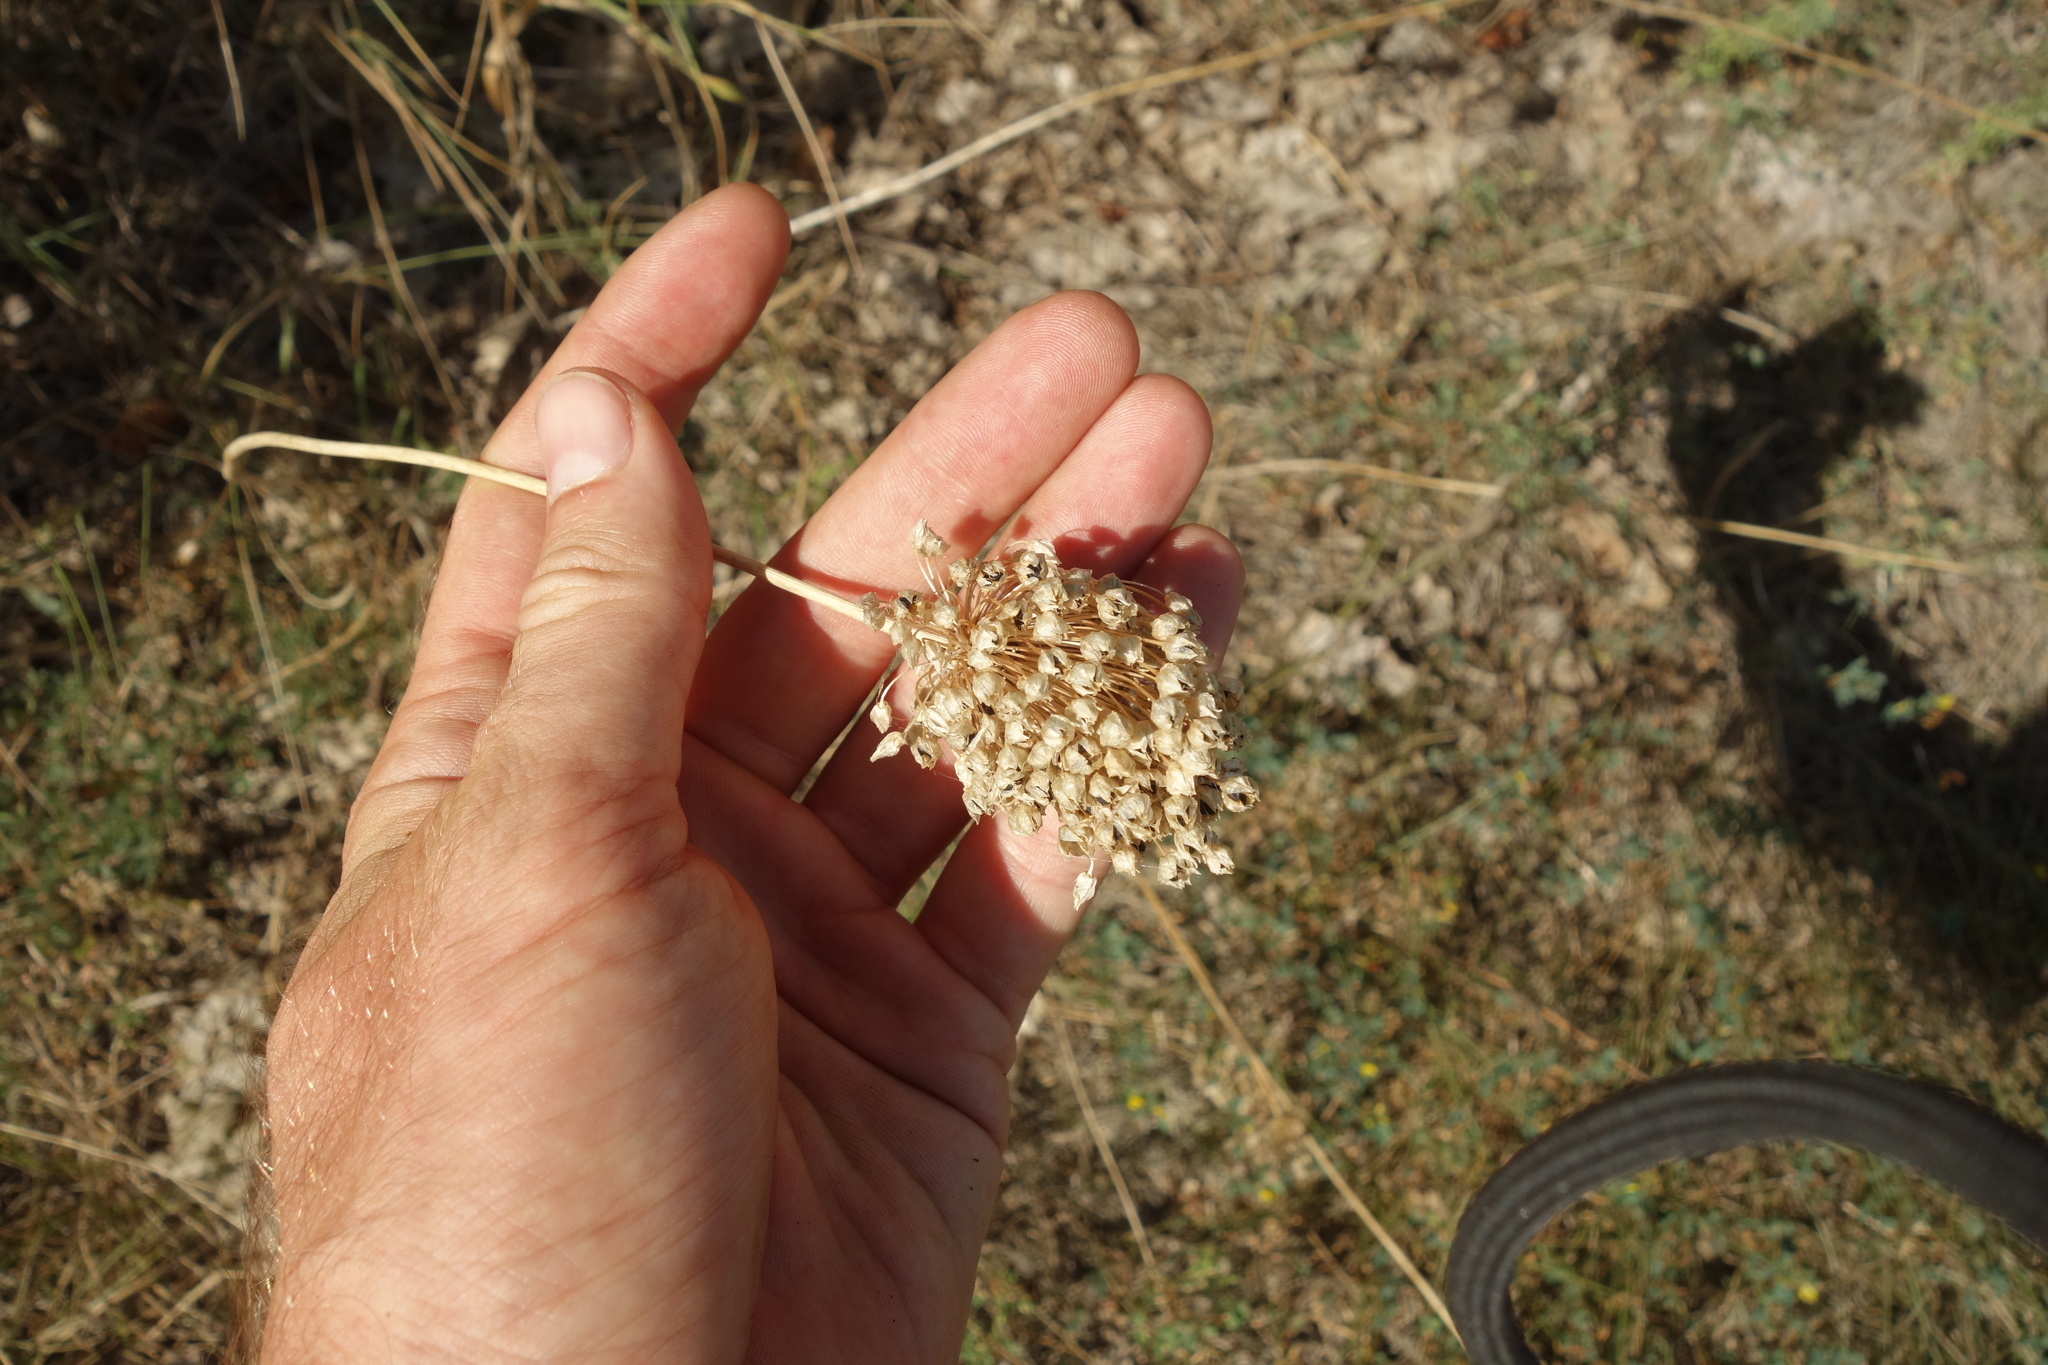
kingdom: Plantae
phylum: Tracheophyta
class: Liliopsida
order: Asparagales
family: Amaryllidaceae
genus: Allium
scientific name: Allium rotundum
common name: Sand leek
